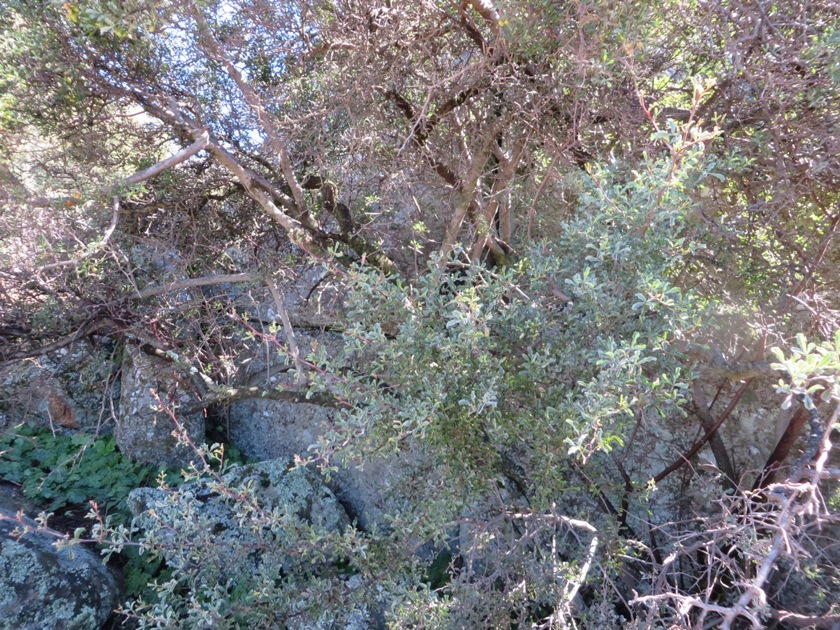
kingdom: Plantae
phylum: Tracheophyta
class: Magnoliopsida
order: Sapindales
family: Anacardiaceae
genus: Searsia
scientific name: Searsia undulata
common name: Namaqua kunibush
